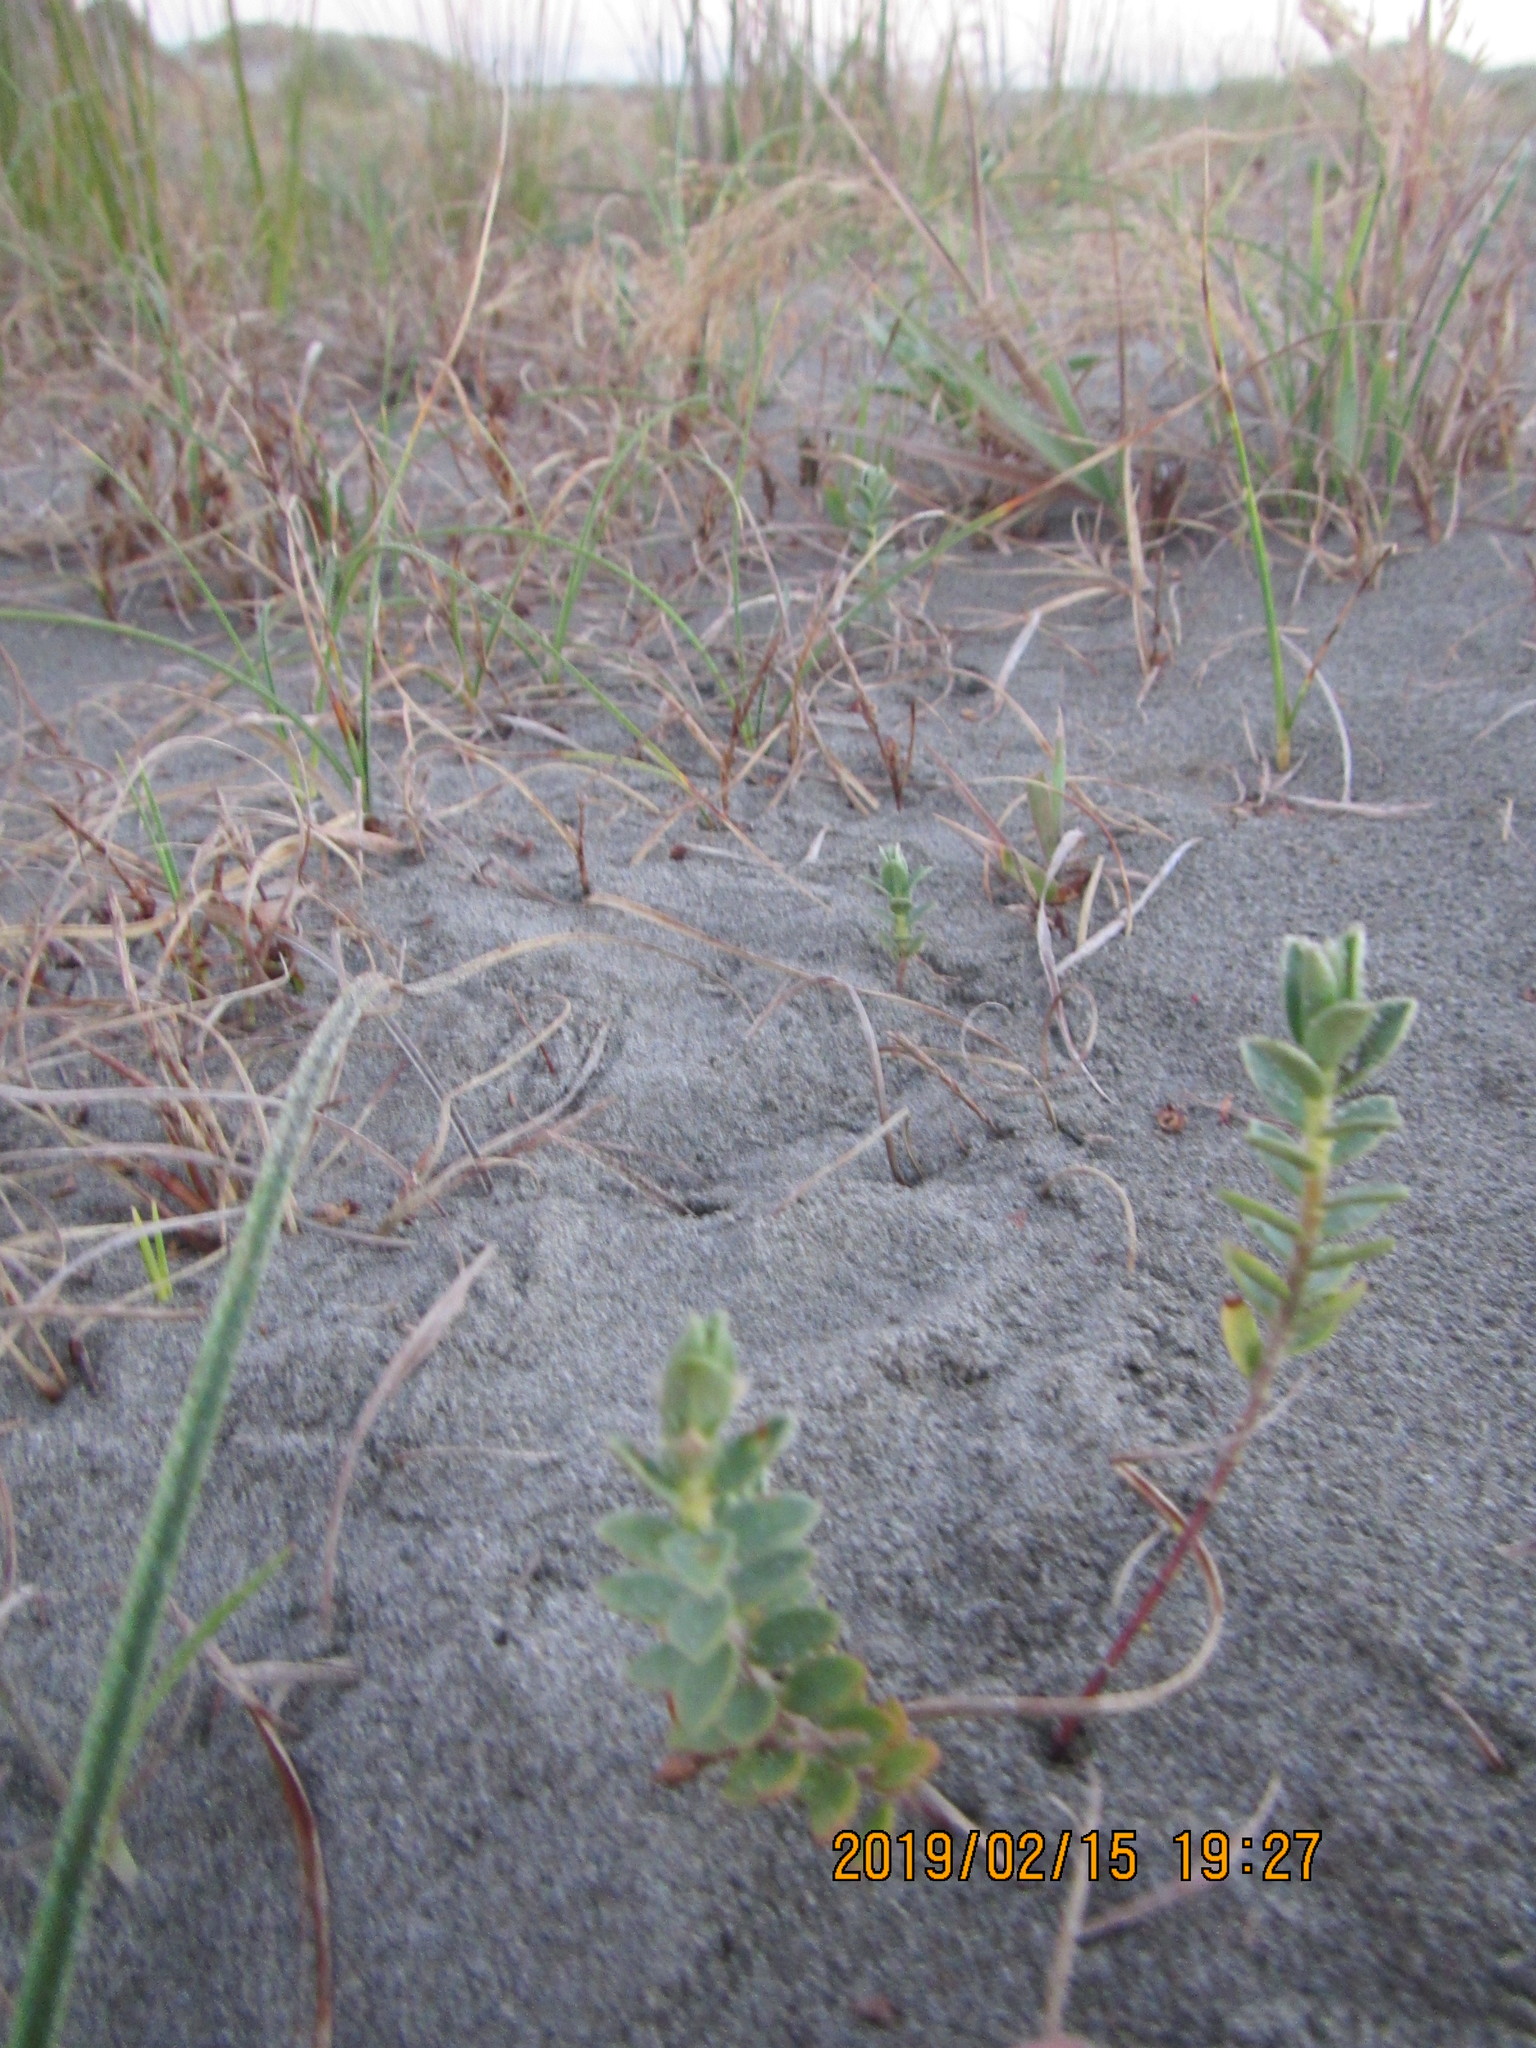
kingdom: Plantae
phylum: Tracheophyta
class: Magnoliopsida
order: Malvales
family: Thymelaeaceae
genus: Pimelea
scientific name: Pimelea villosa
